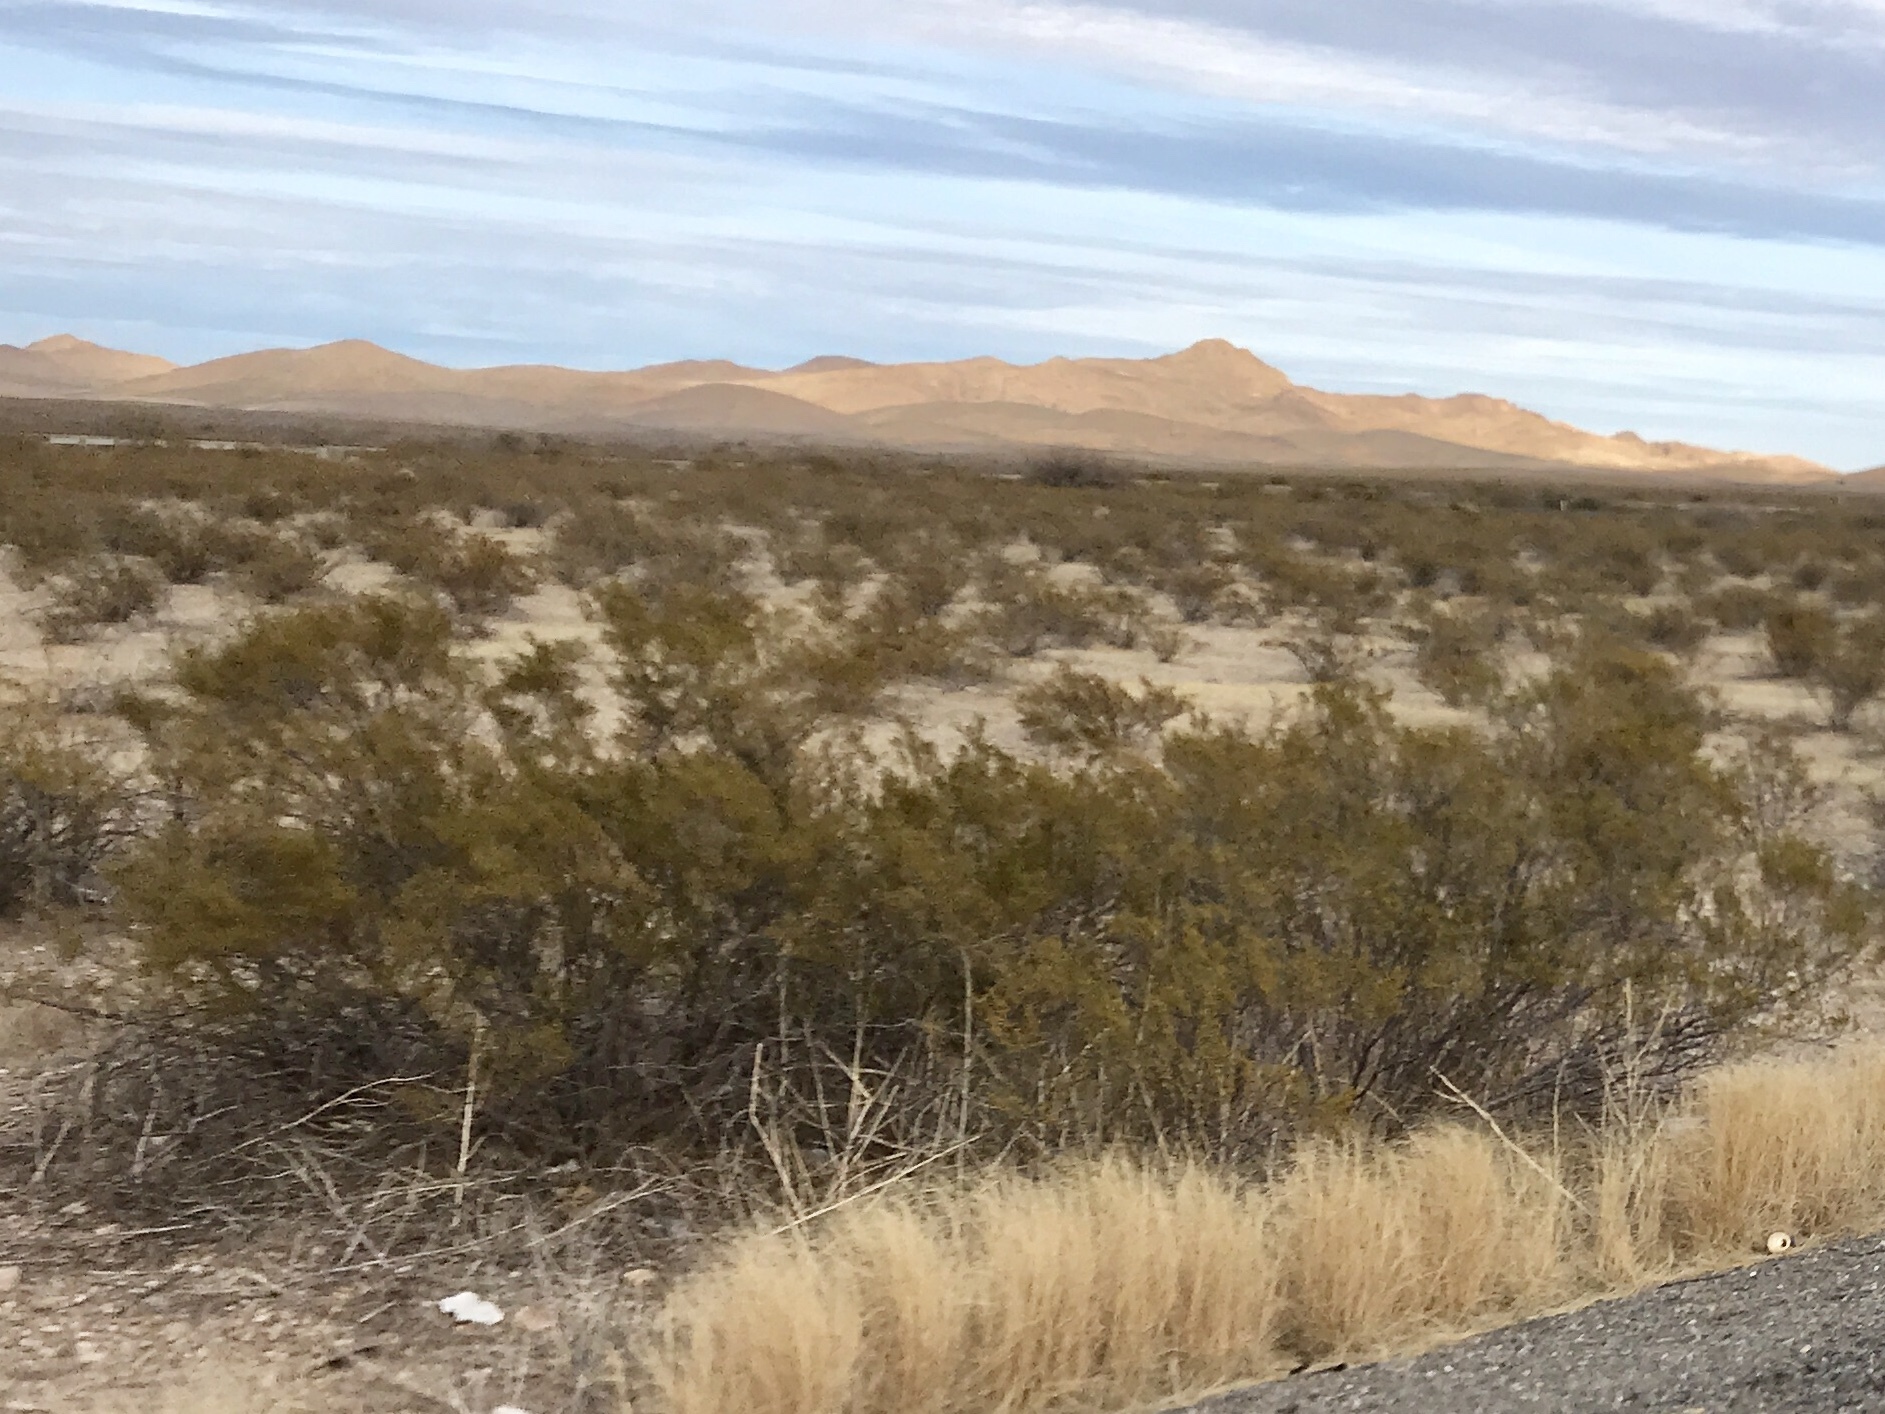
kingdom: Plantae
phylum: Tracheophyta
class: Magnoliopsida
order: Zygophyllales
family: Zygophyllaceae
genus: Larrea
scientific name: Larrea tridentata
